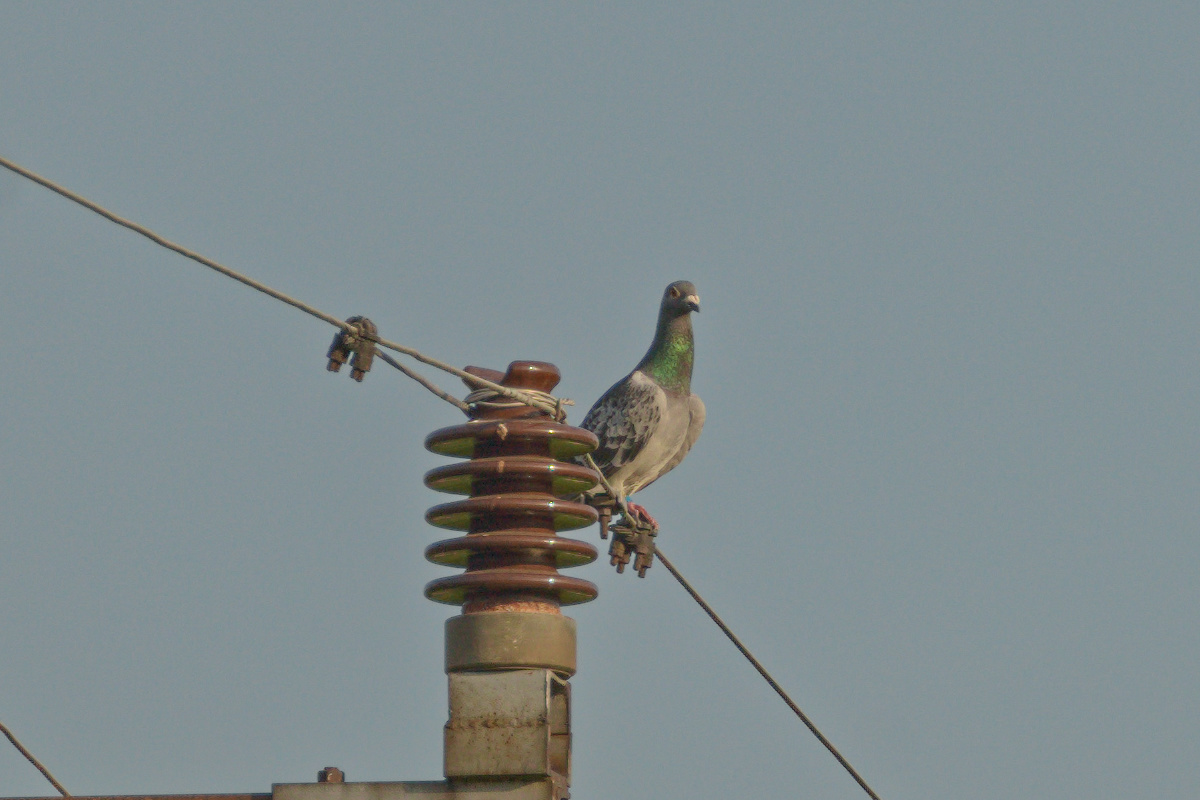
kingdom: Animalia
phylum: Chordata
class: Aves
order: Columbiformes
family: Columbidae
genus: Columba
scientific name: Columba livia
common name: Rock pigeon
